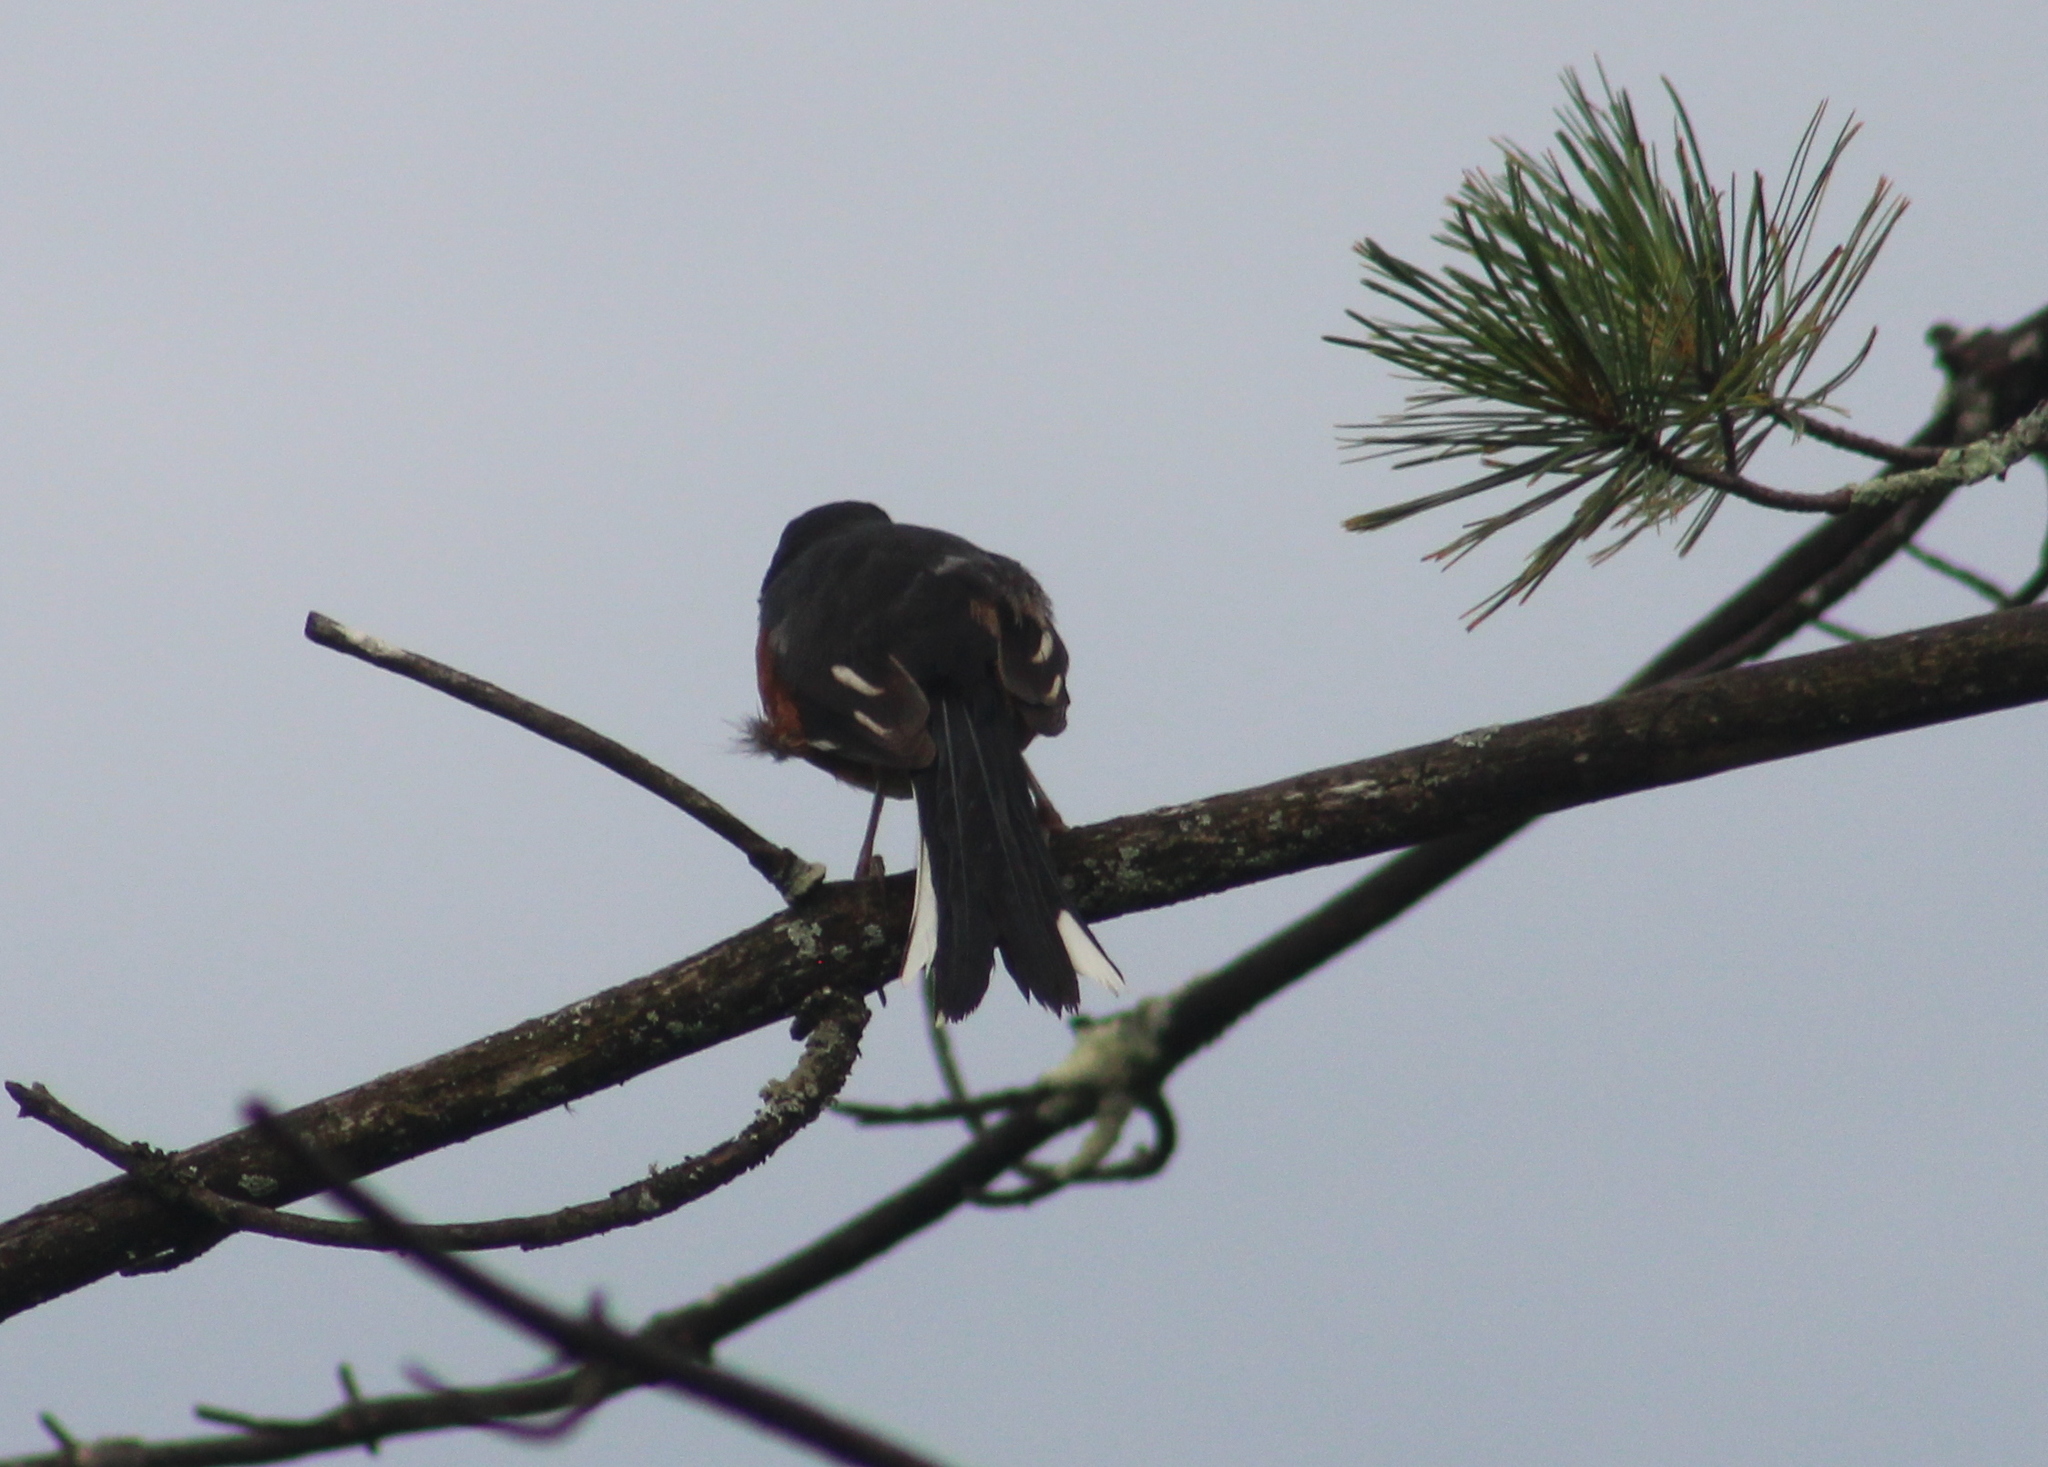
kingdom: Animalia
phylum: Chordata
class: Aves
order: Passeriformes
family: Passerellidae
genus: Pipilo
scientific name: Pipilo erythrophthalmus
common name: Eastern towhee
